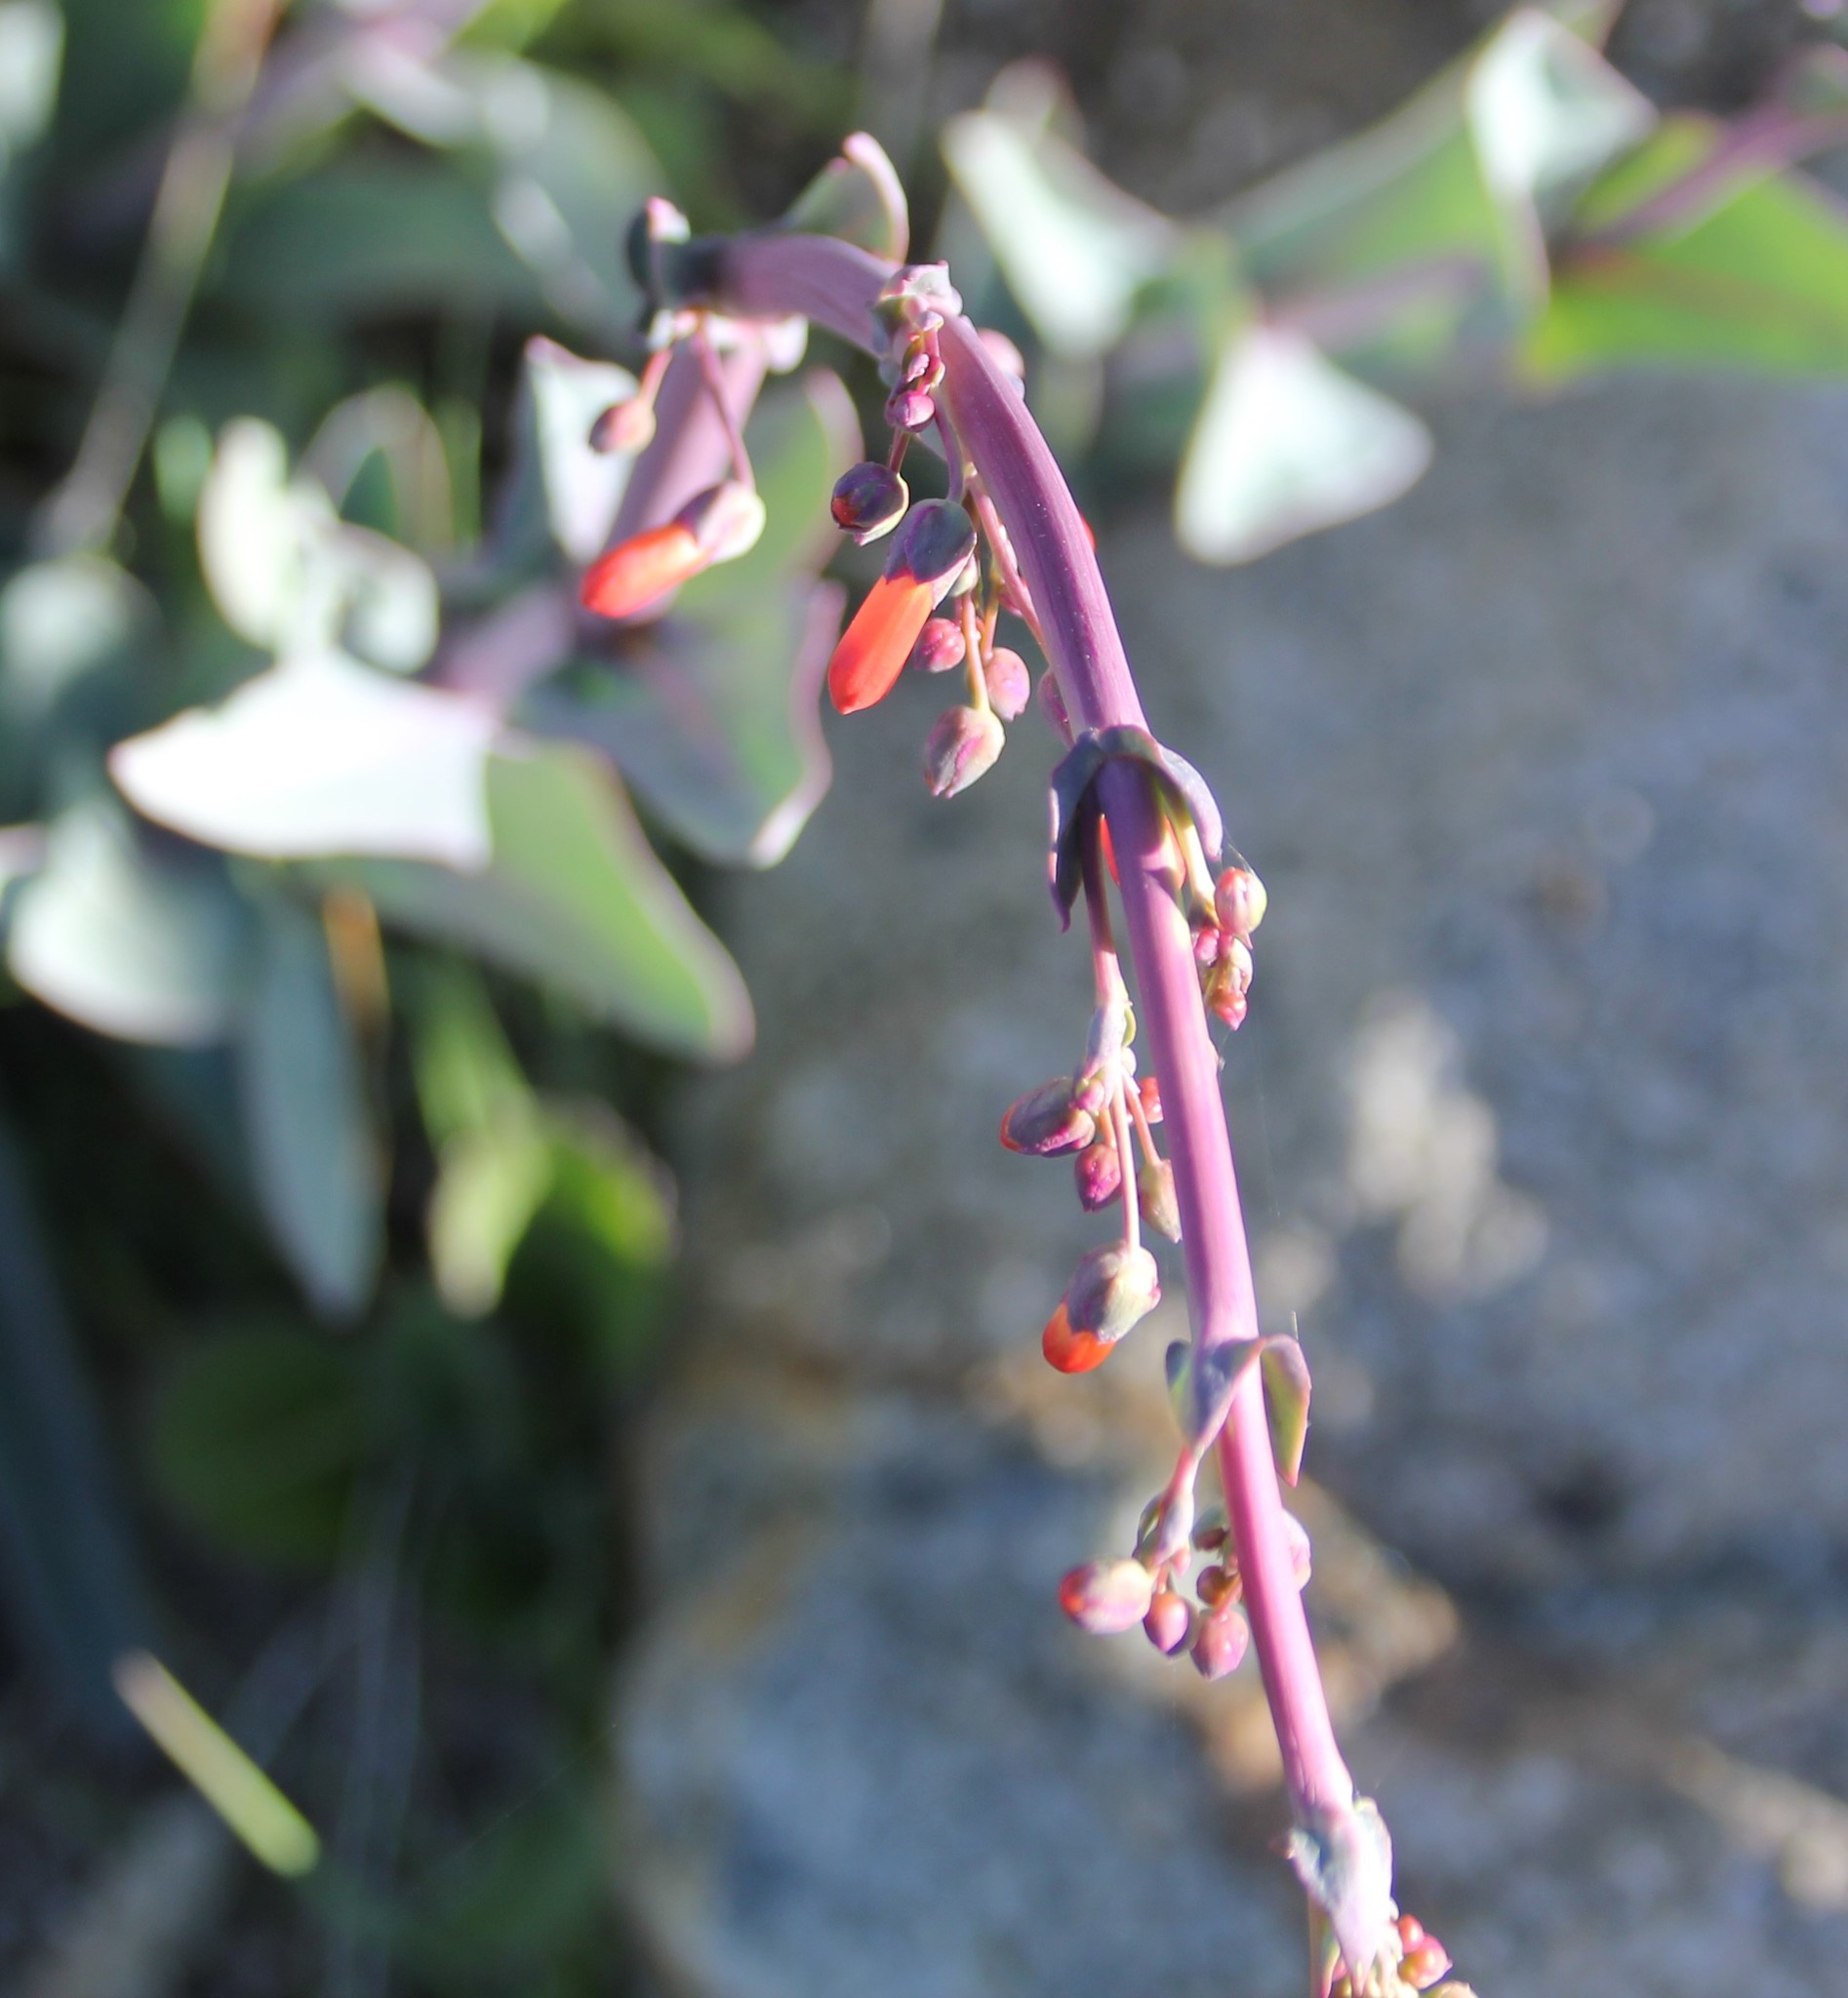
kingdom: Plantae
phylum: Tracheophyta
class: Magnoliopsida
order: Lamiales
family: Plantaginaceae
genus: Penstemon
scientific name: Penstemon centranthifolius
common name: Scarlet bugler
